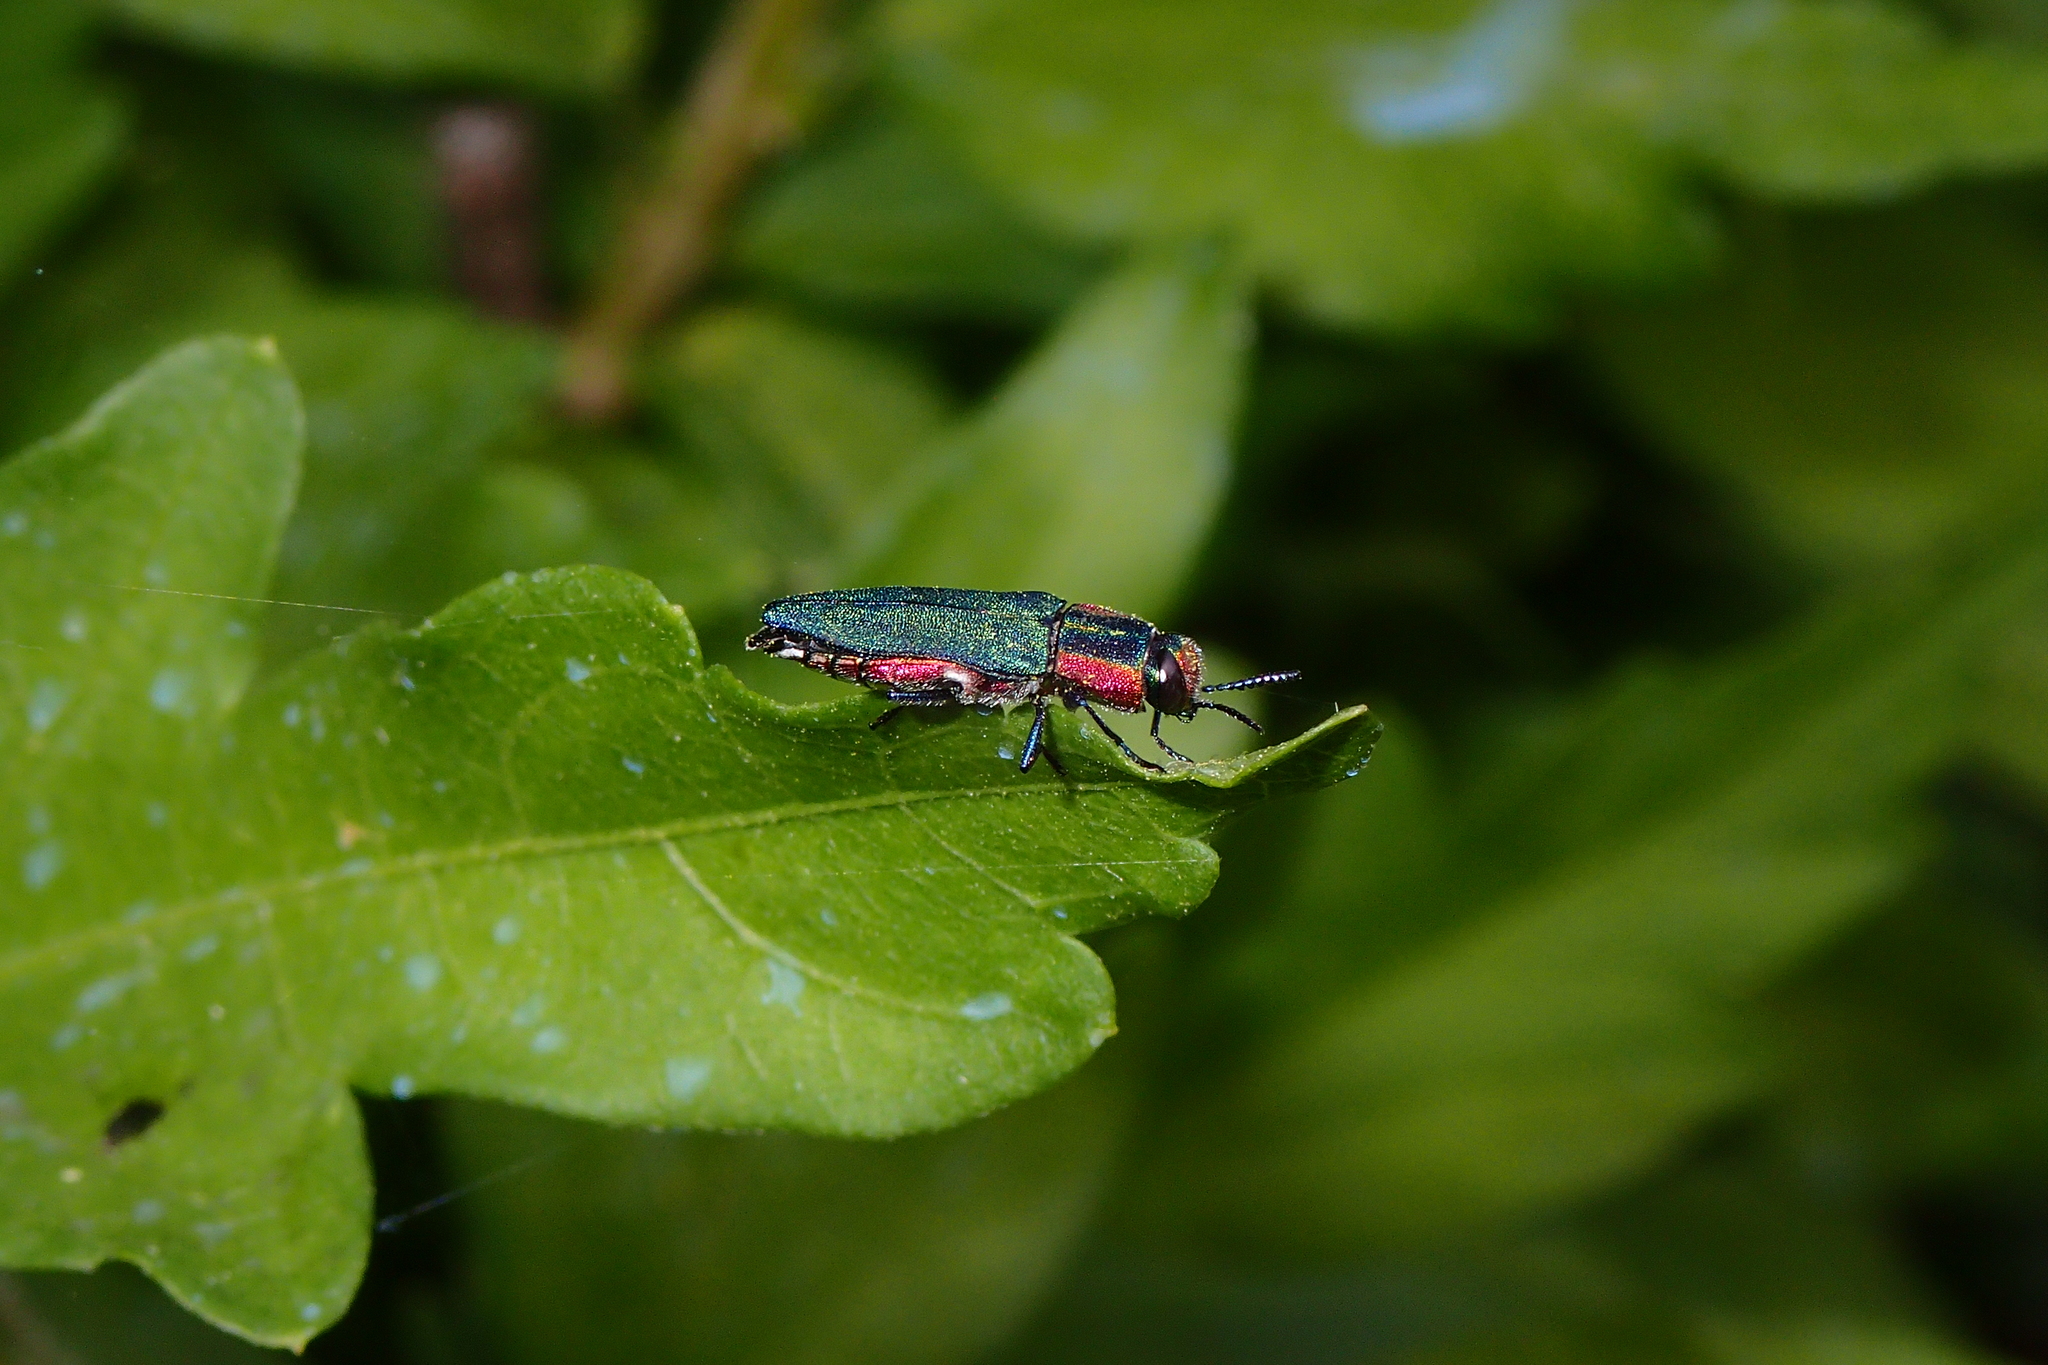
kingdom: Animalia
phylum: Arthropoda
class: Insecta
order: Coleoptera
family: Buprestidae
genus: Anthaxia
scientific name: Anthaxia hungarica
